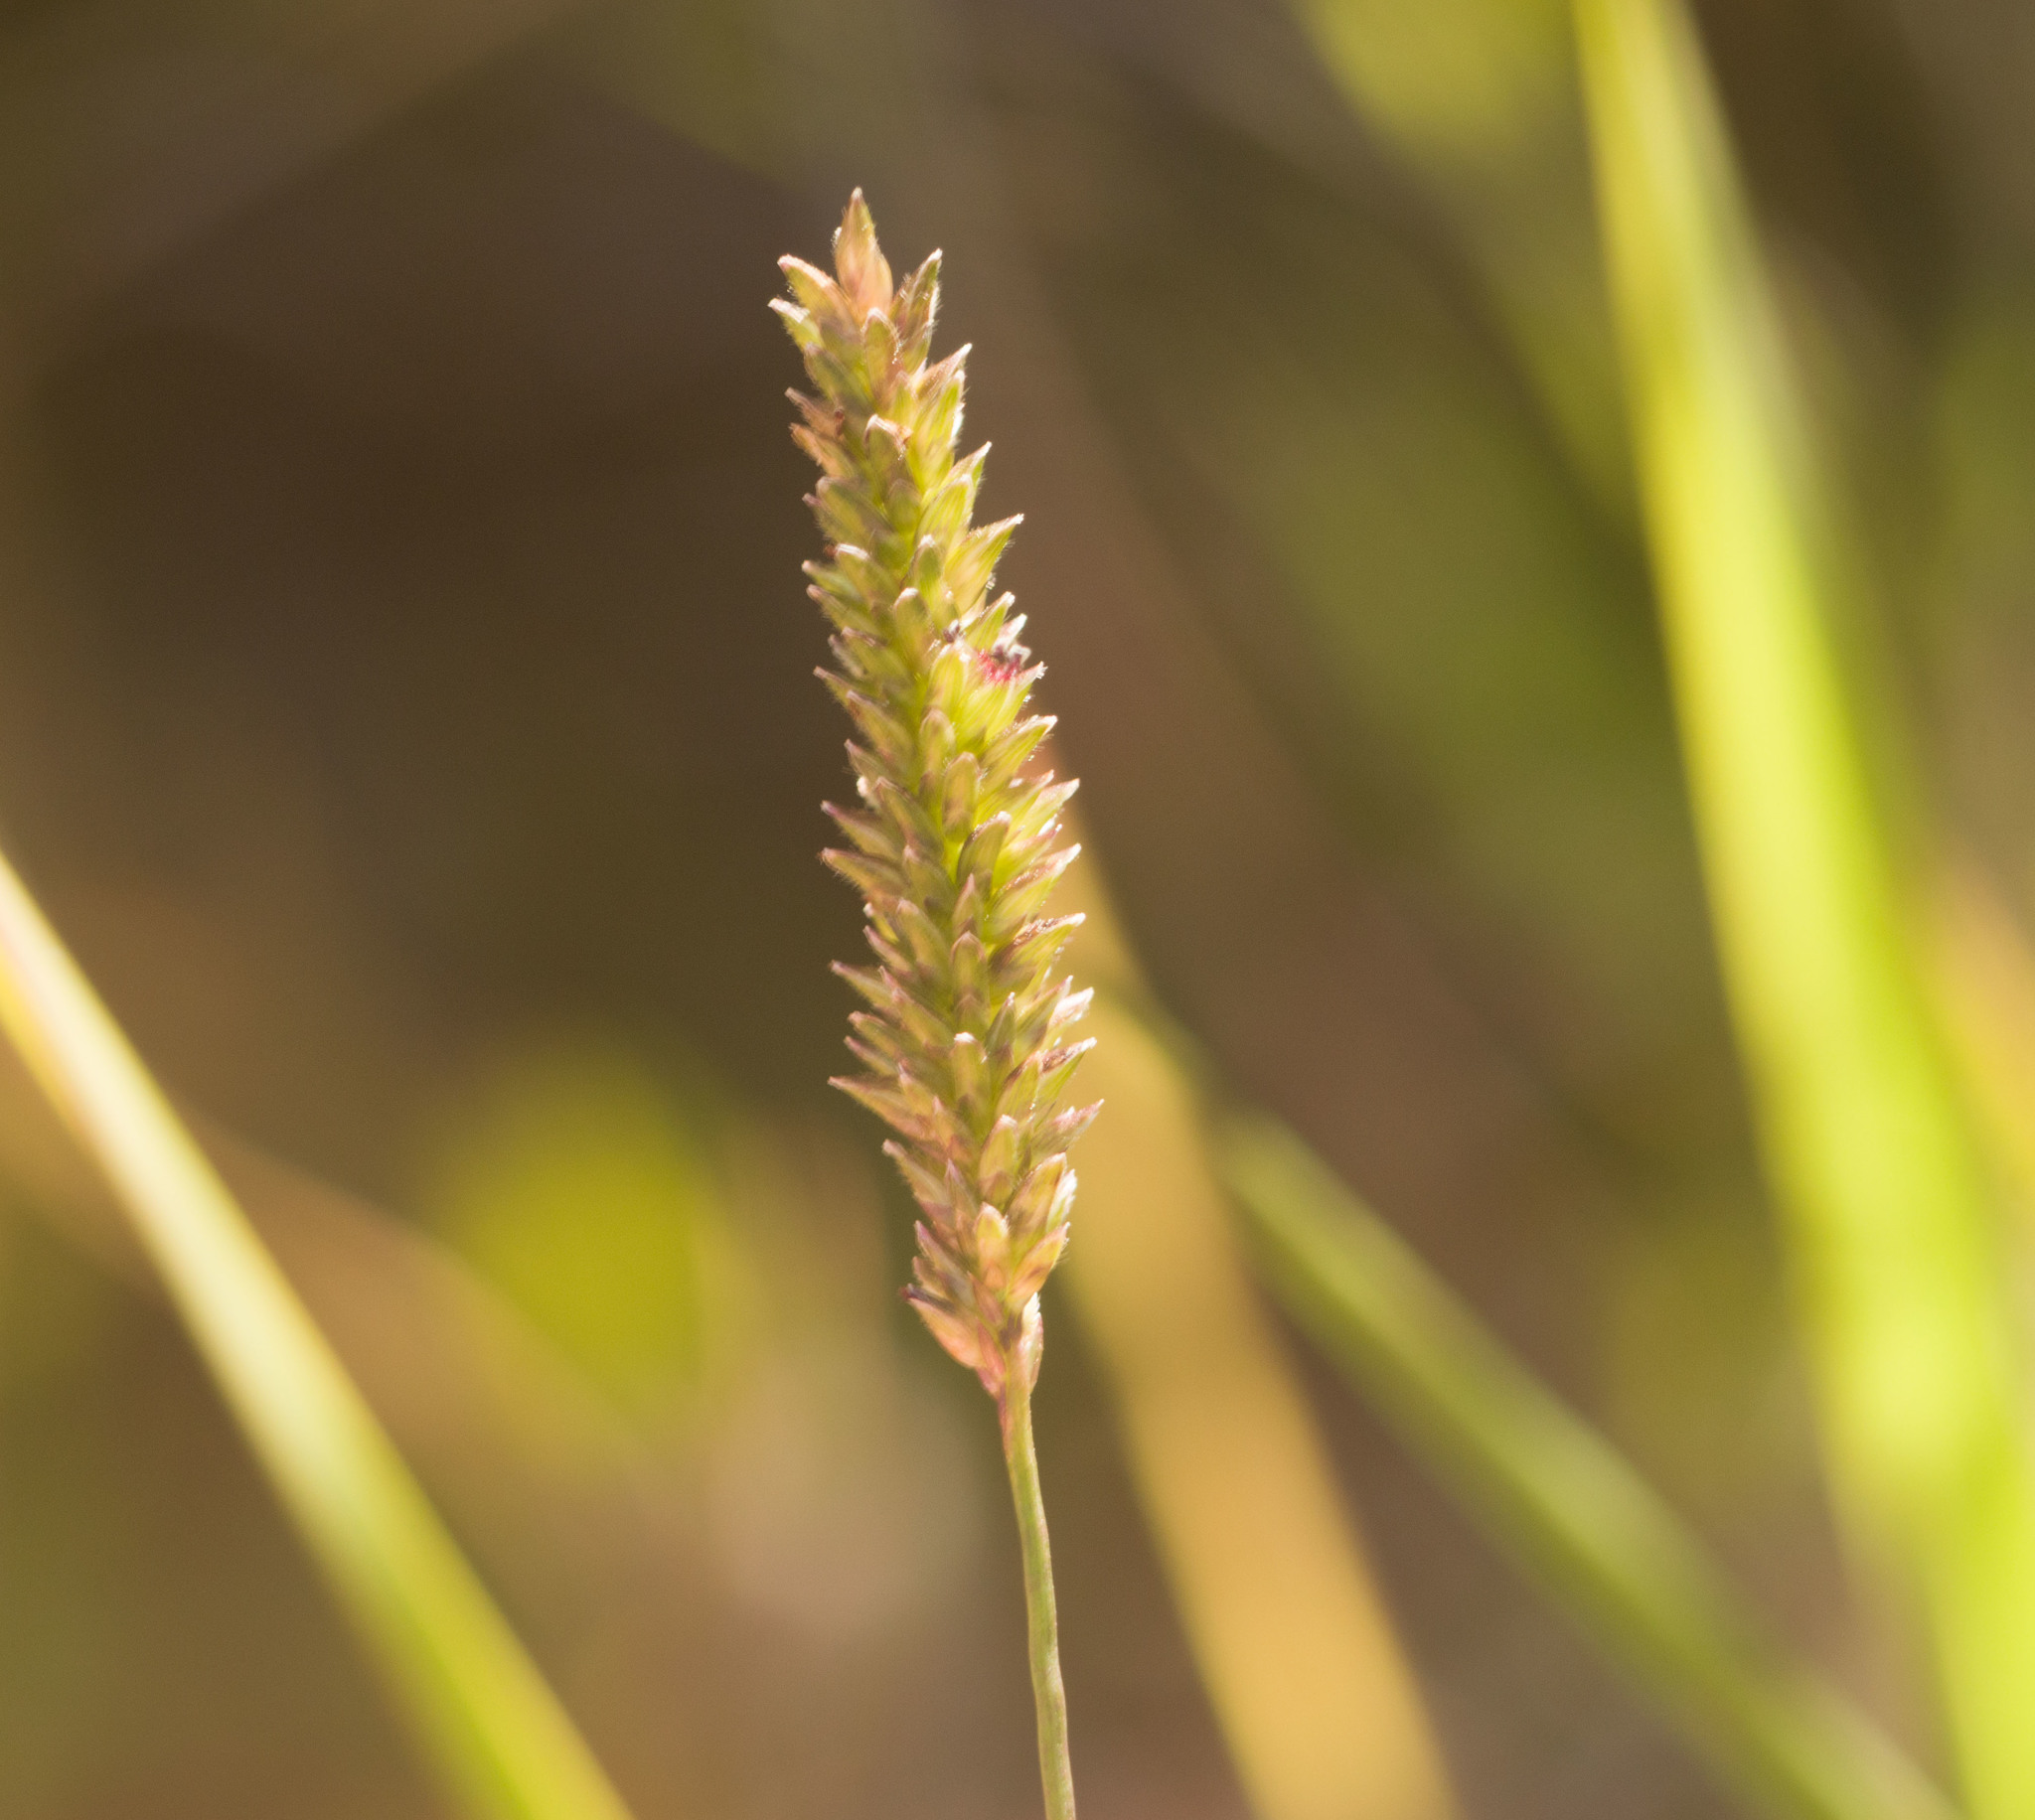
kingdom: Plantae
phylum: Tracheophyta
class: Liliopsida
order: Poales
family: Poaceae
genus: Sacciolepis
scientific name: Sacciolepis indica
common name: Glenwoodgrass
